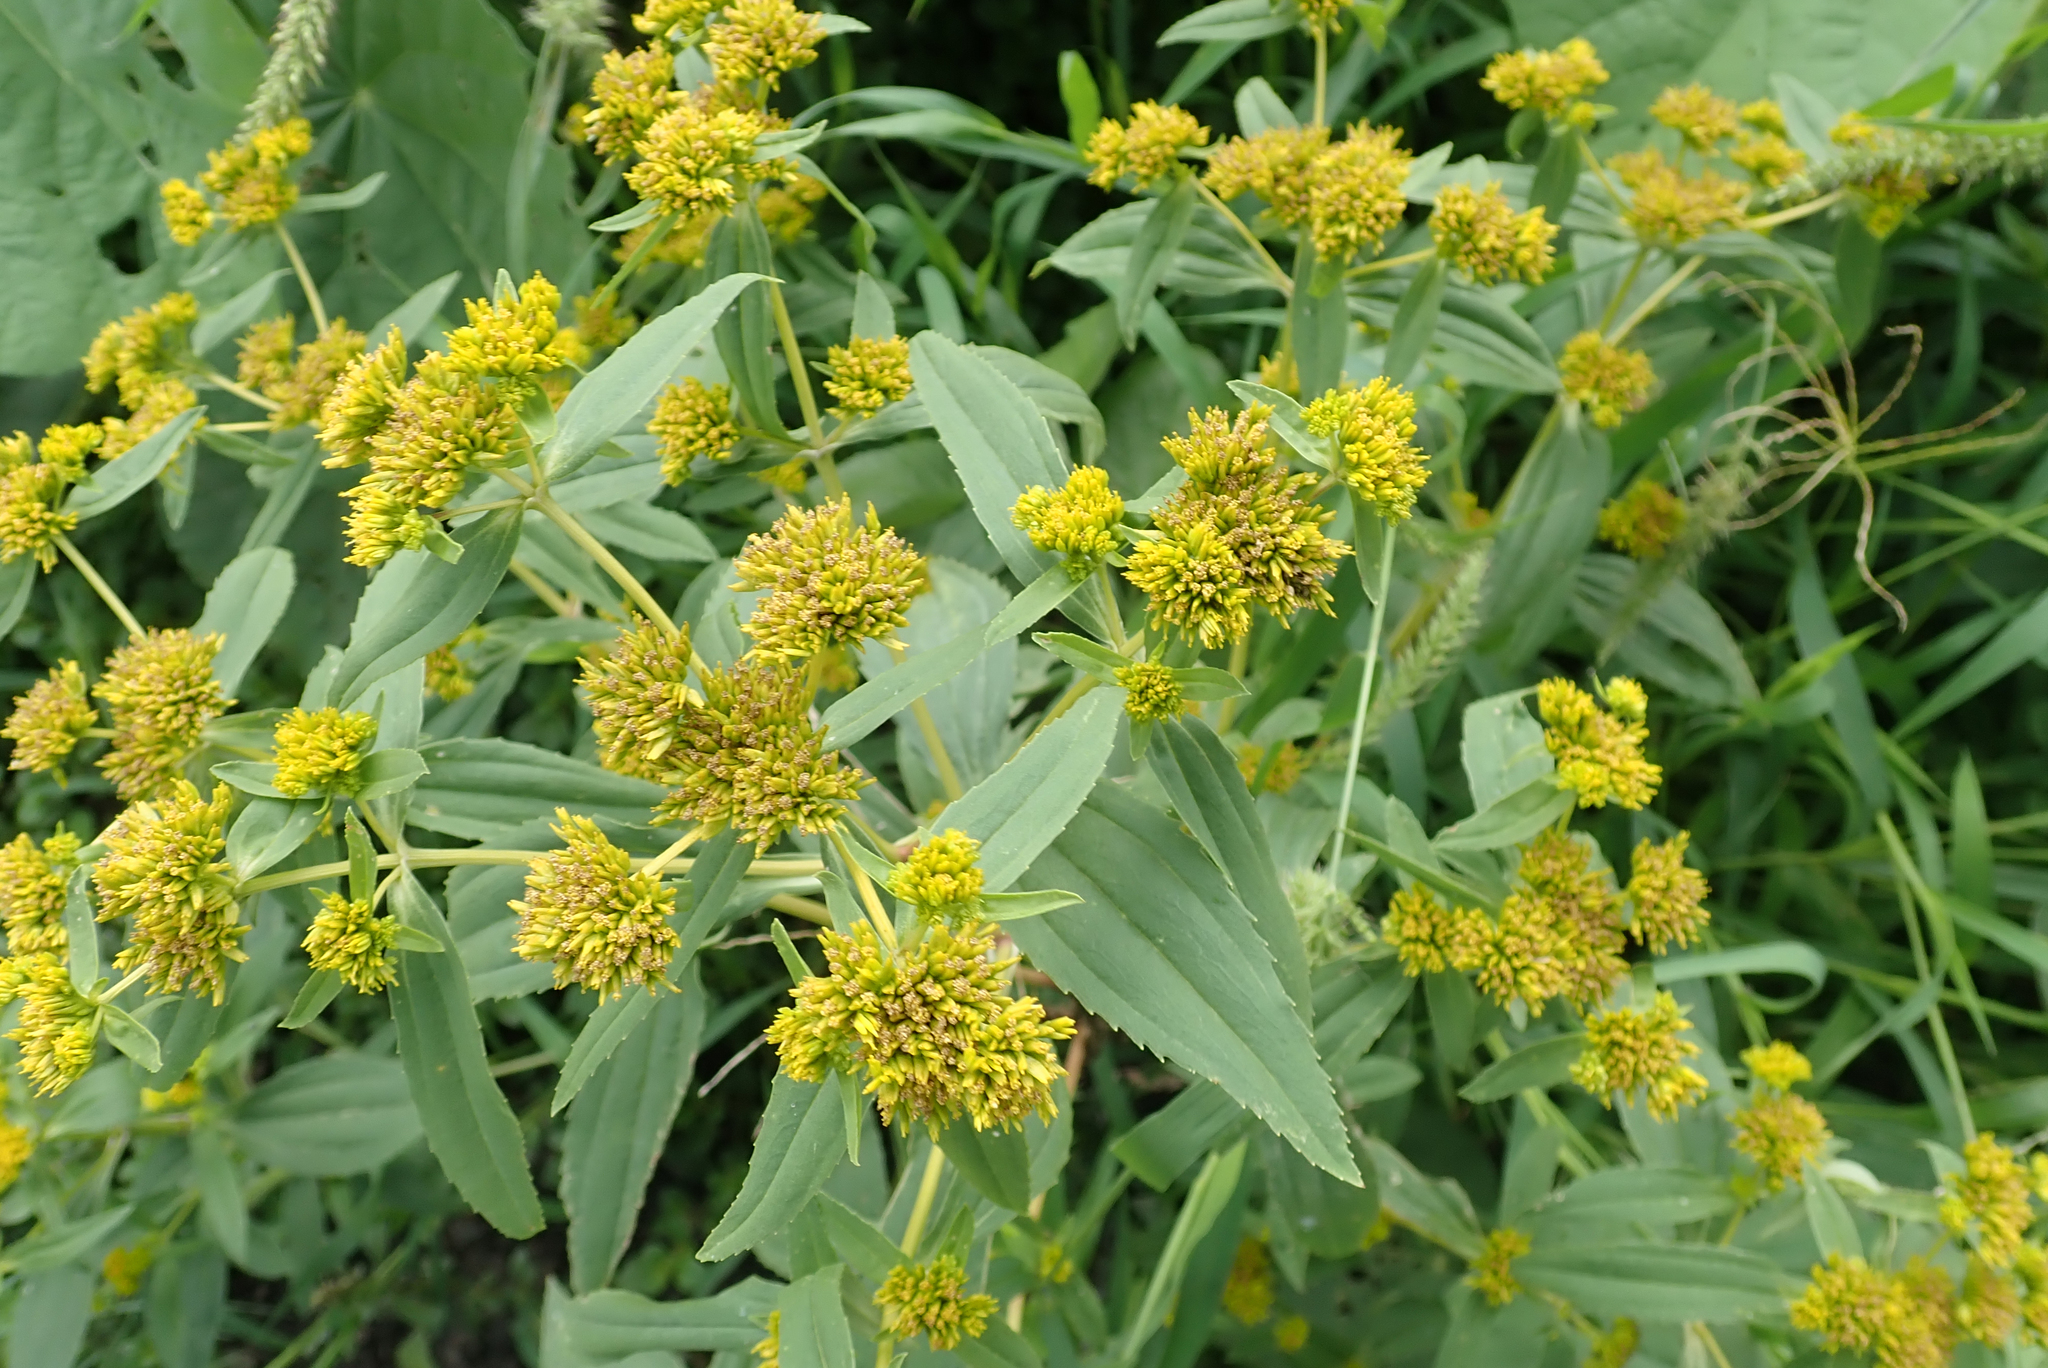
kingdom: Plantae
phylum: Tracheophyta
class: Magnoliopsida
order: Asterales
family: Asteraceae
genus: Flaveria
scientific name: Flaveria bidentis
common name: Coastal plain yellowtops
